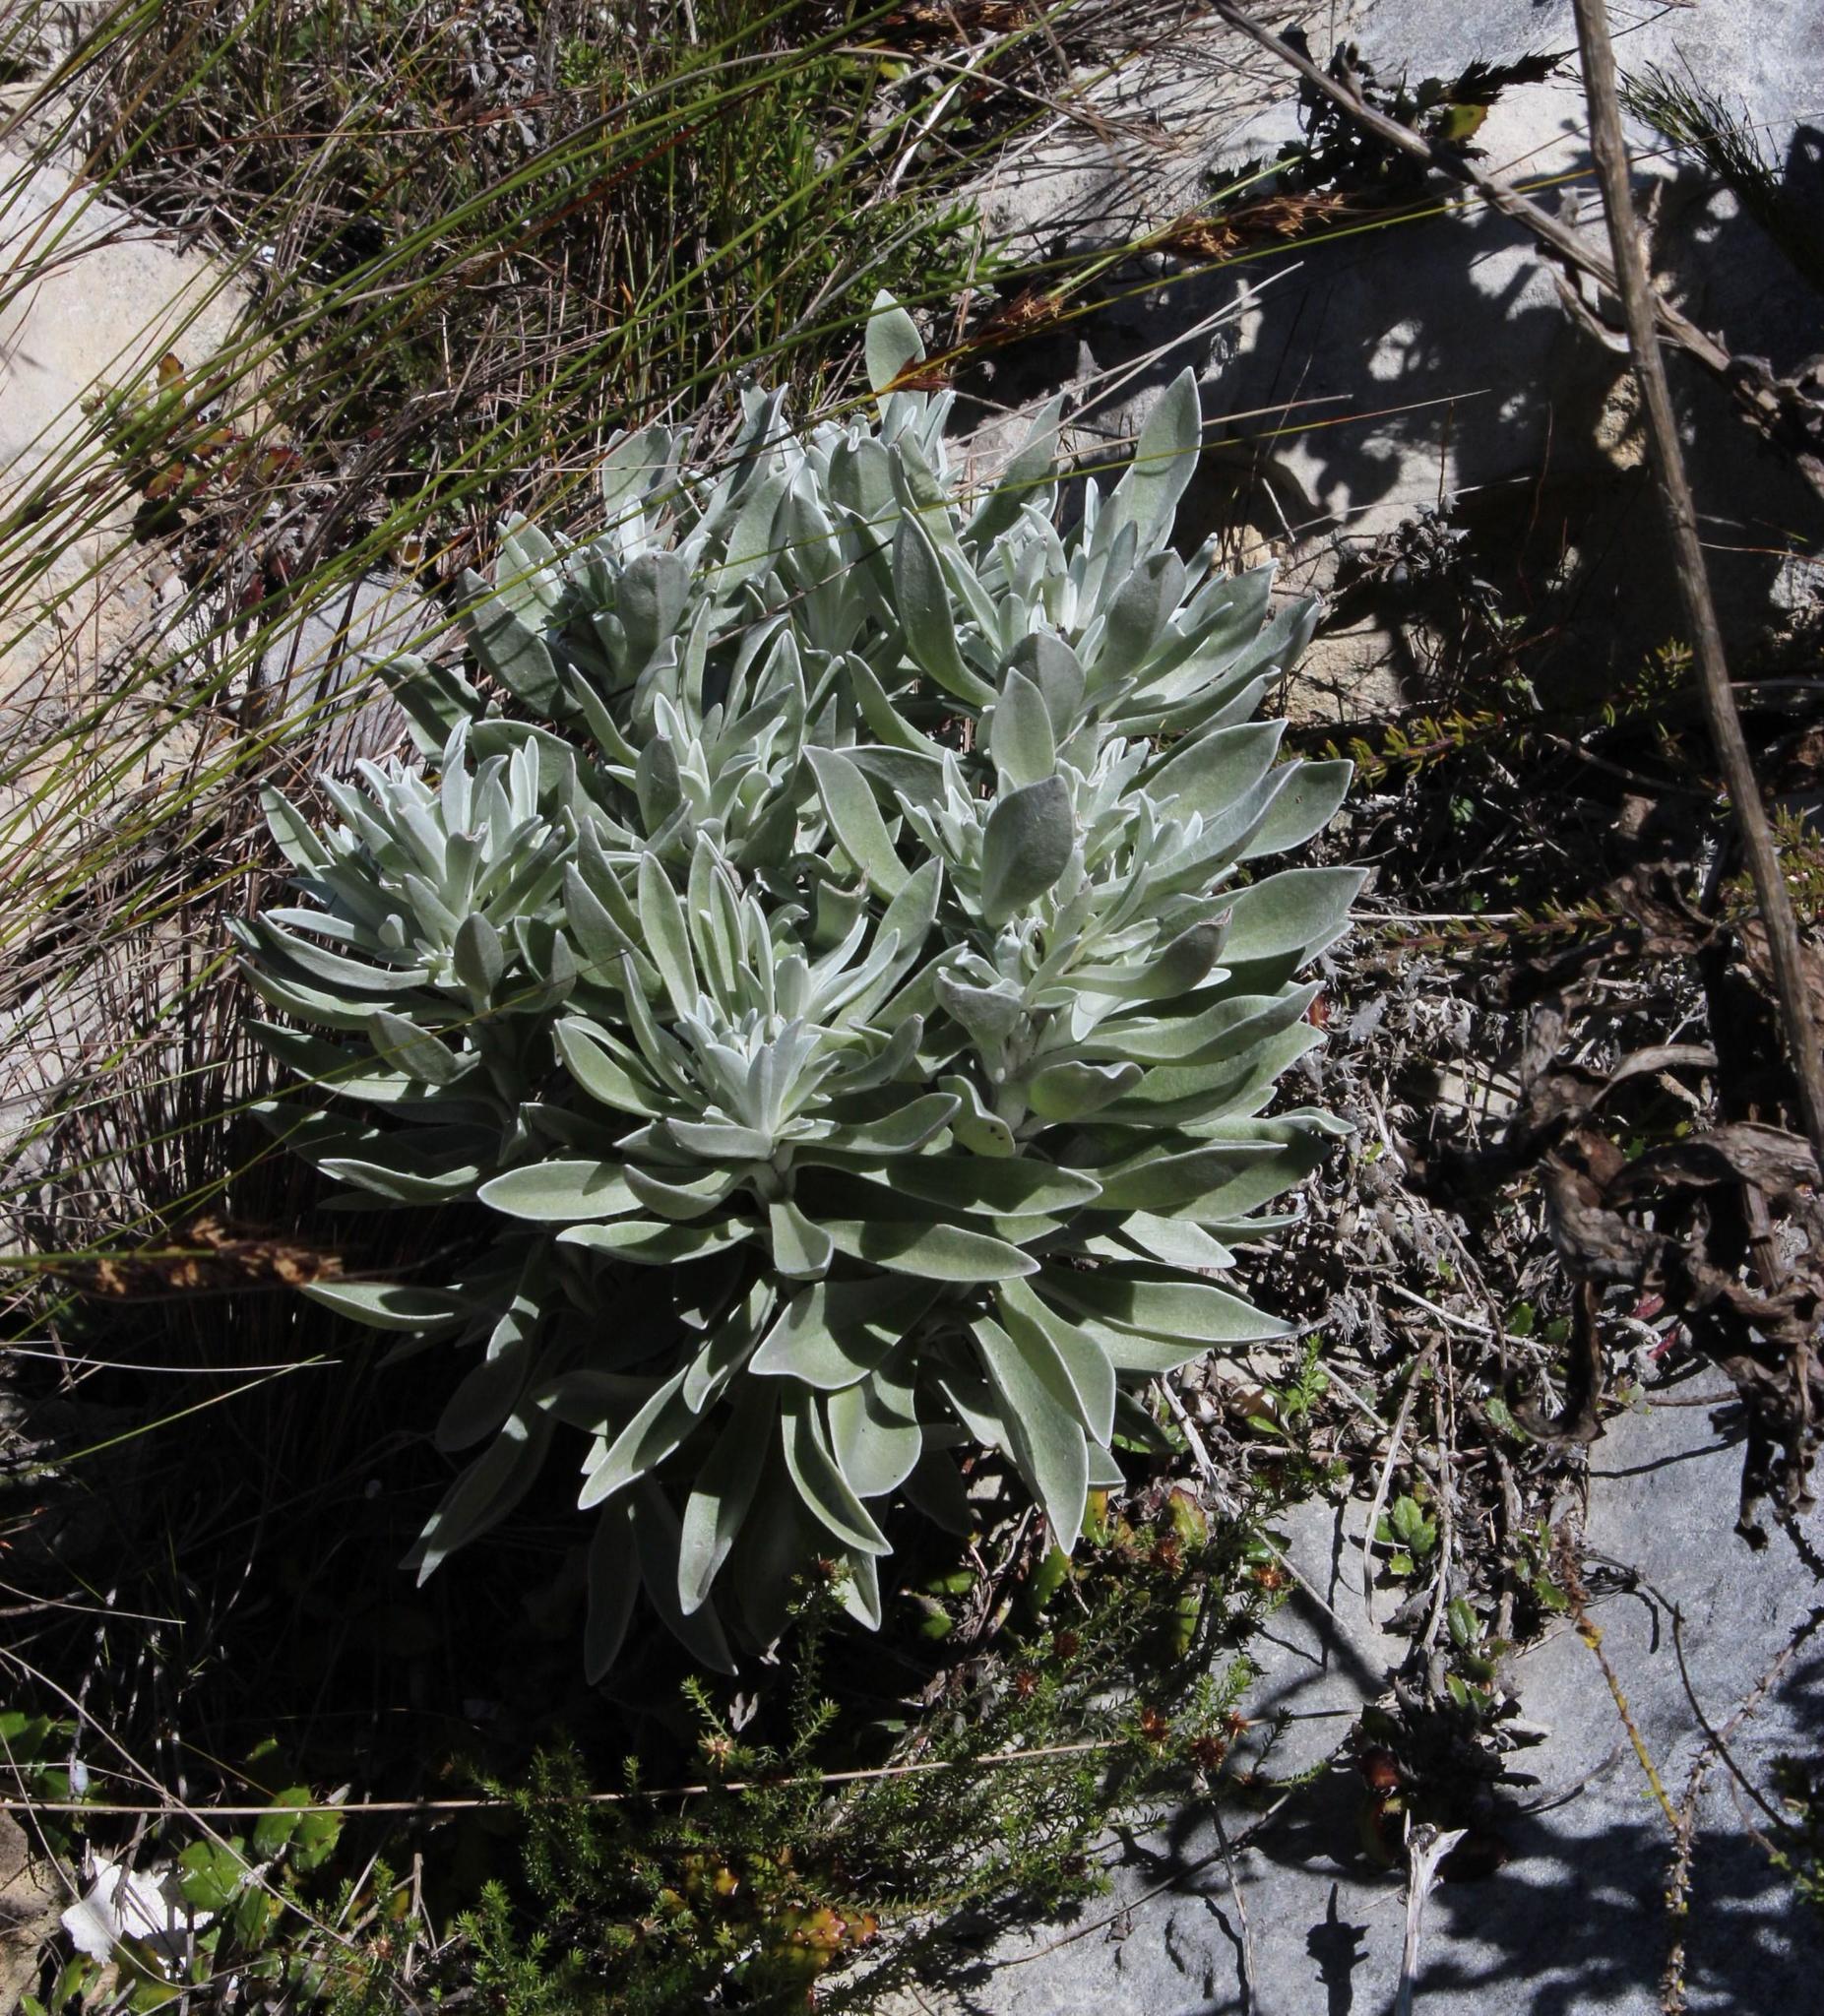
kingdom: Plantae
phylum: Tracheophyta
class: Magnoliopsida
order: Asterales
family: Asteraceae
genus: Syncarpha
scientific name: Syncarpha argyropsis
